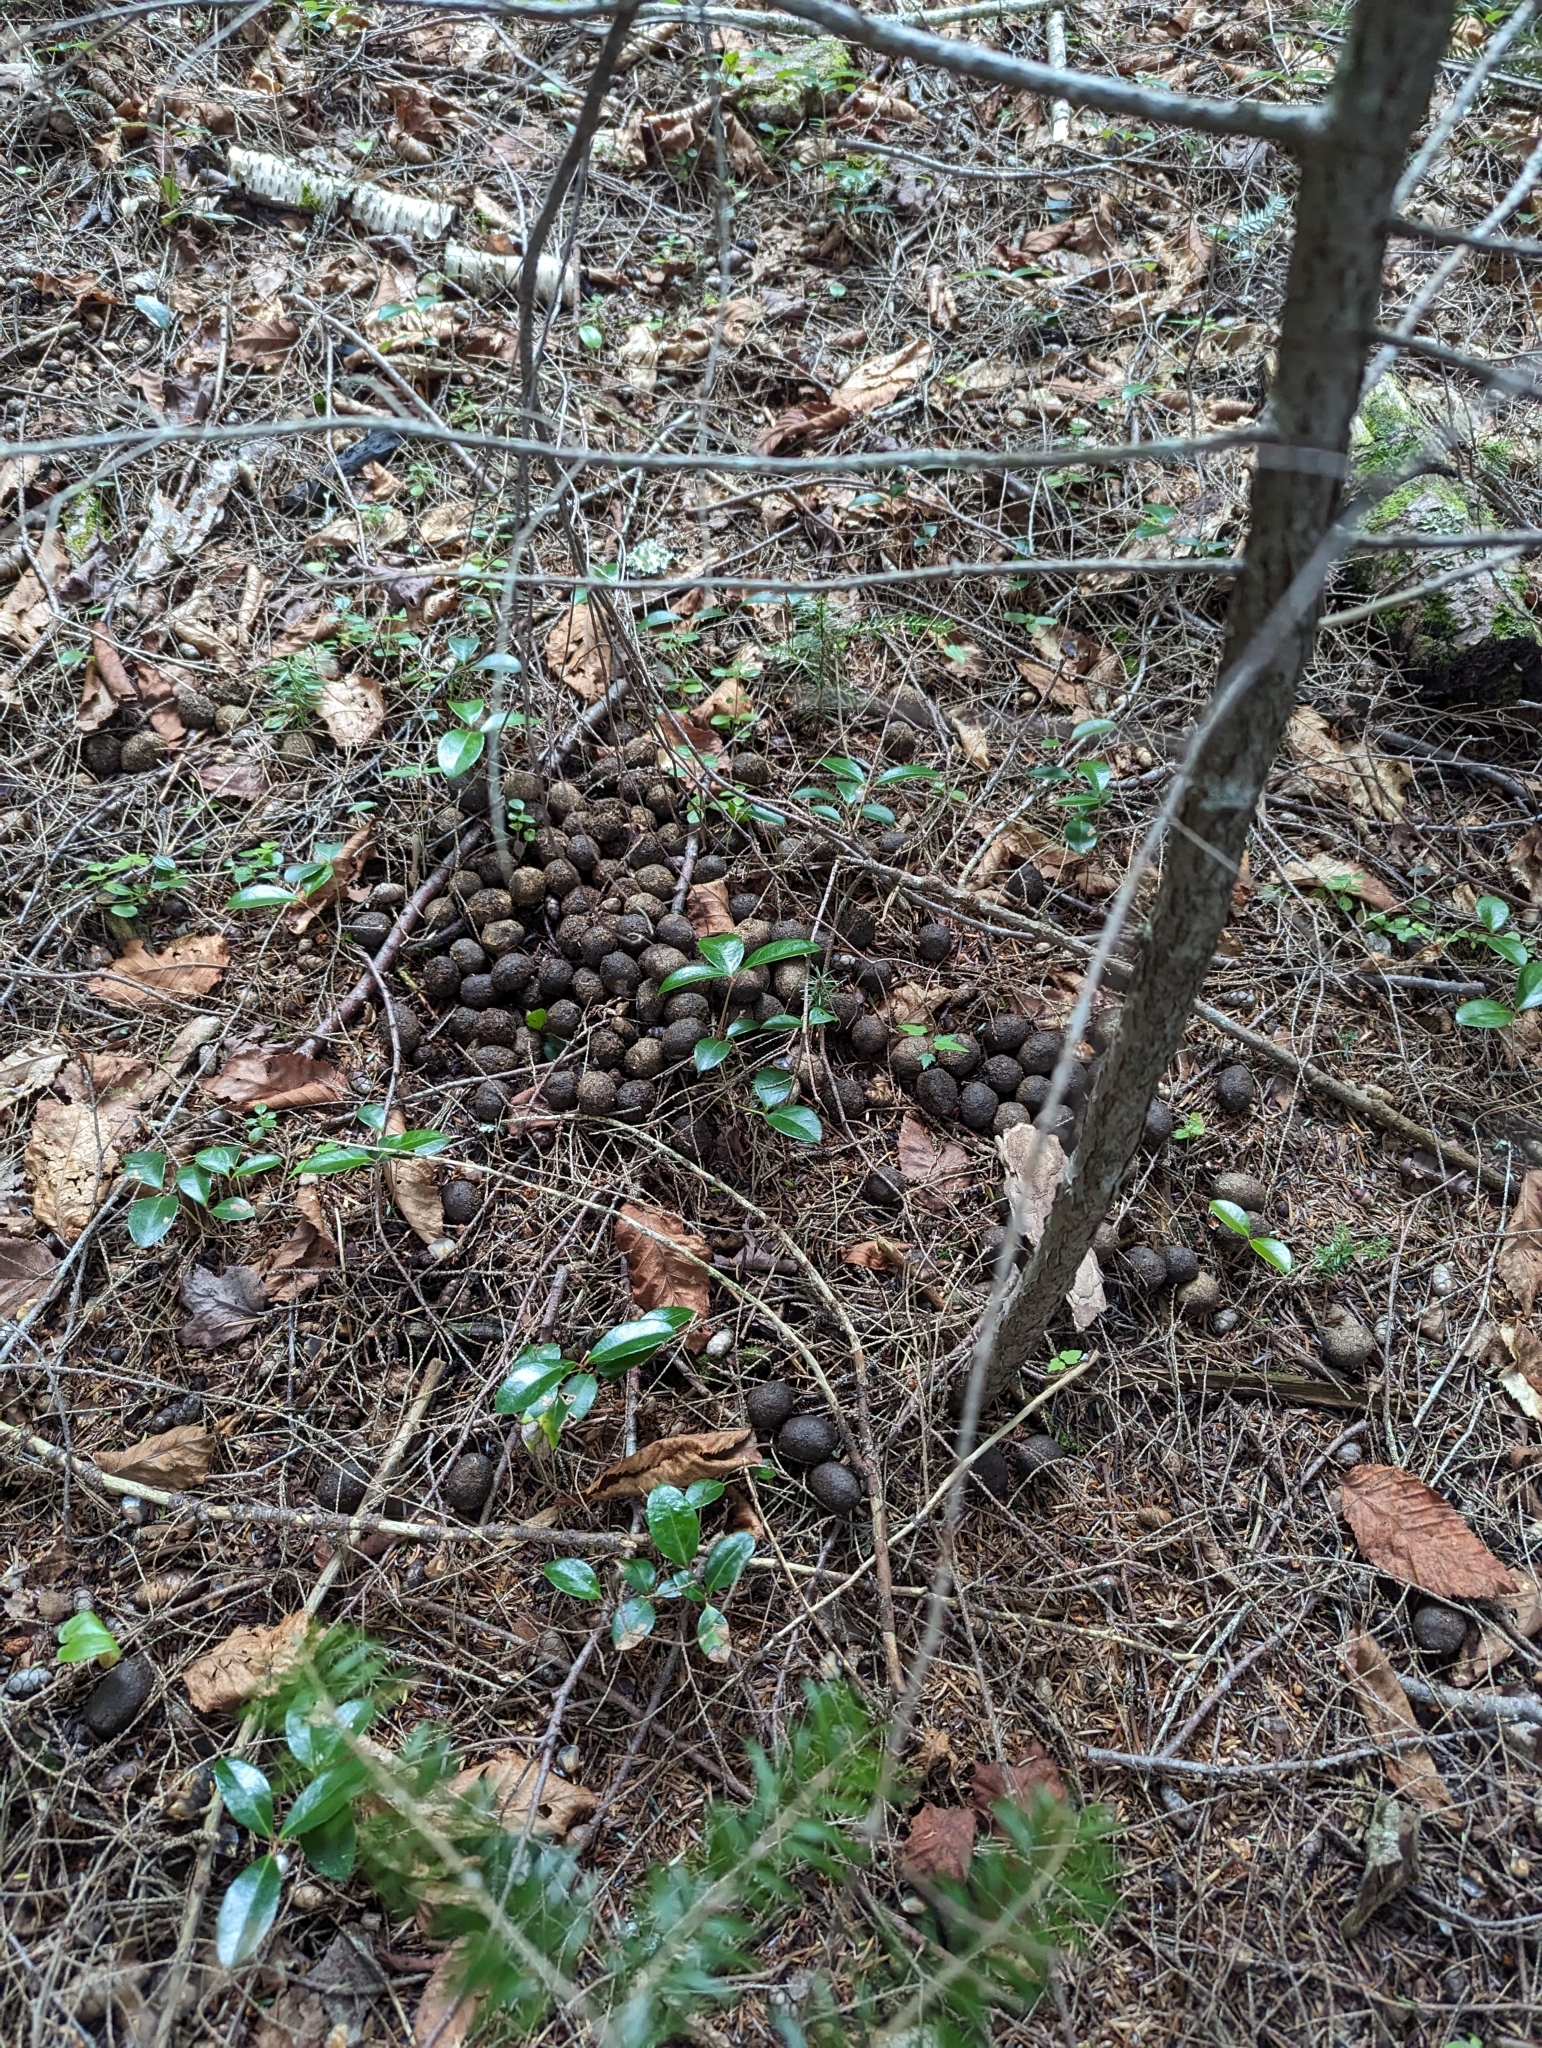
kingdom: Animalia
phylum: Chordata
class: Mammalia
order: Artiodactyla
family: Cervidae
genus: Alces
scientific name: Alces alces
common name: Moose
